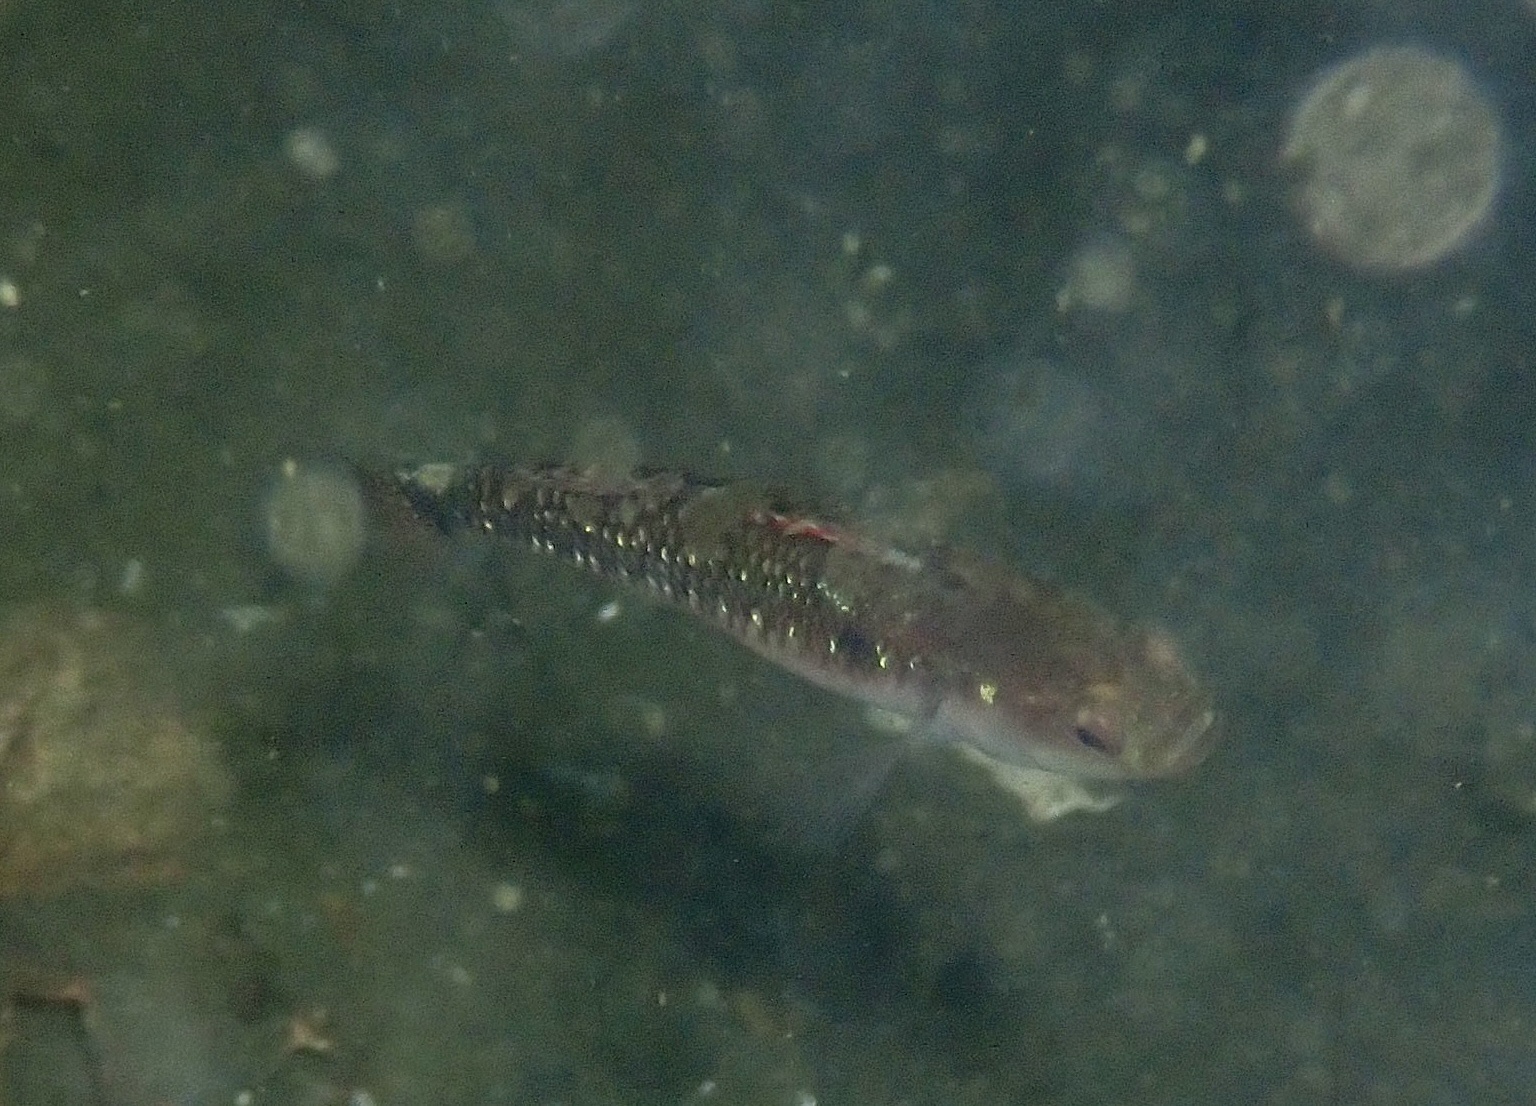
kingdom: Animalia
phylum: Chordata
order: Perciformes
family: Gobiidae
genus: Gobiusculus
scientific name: Gobiusculus flavescens
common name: Two-spotted goby
